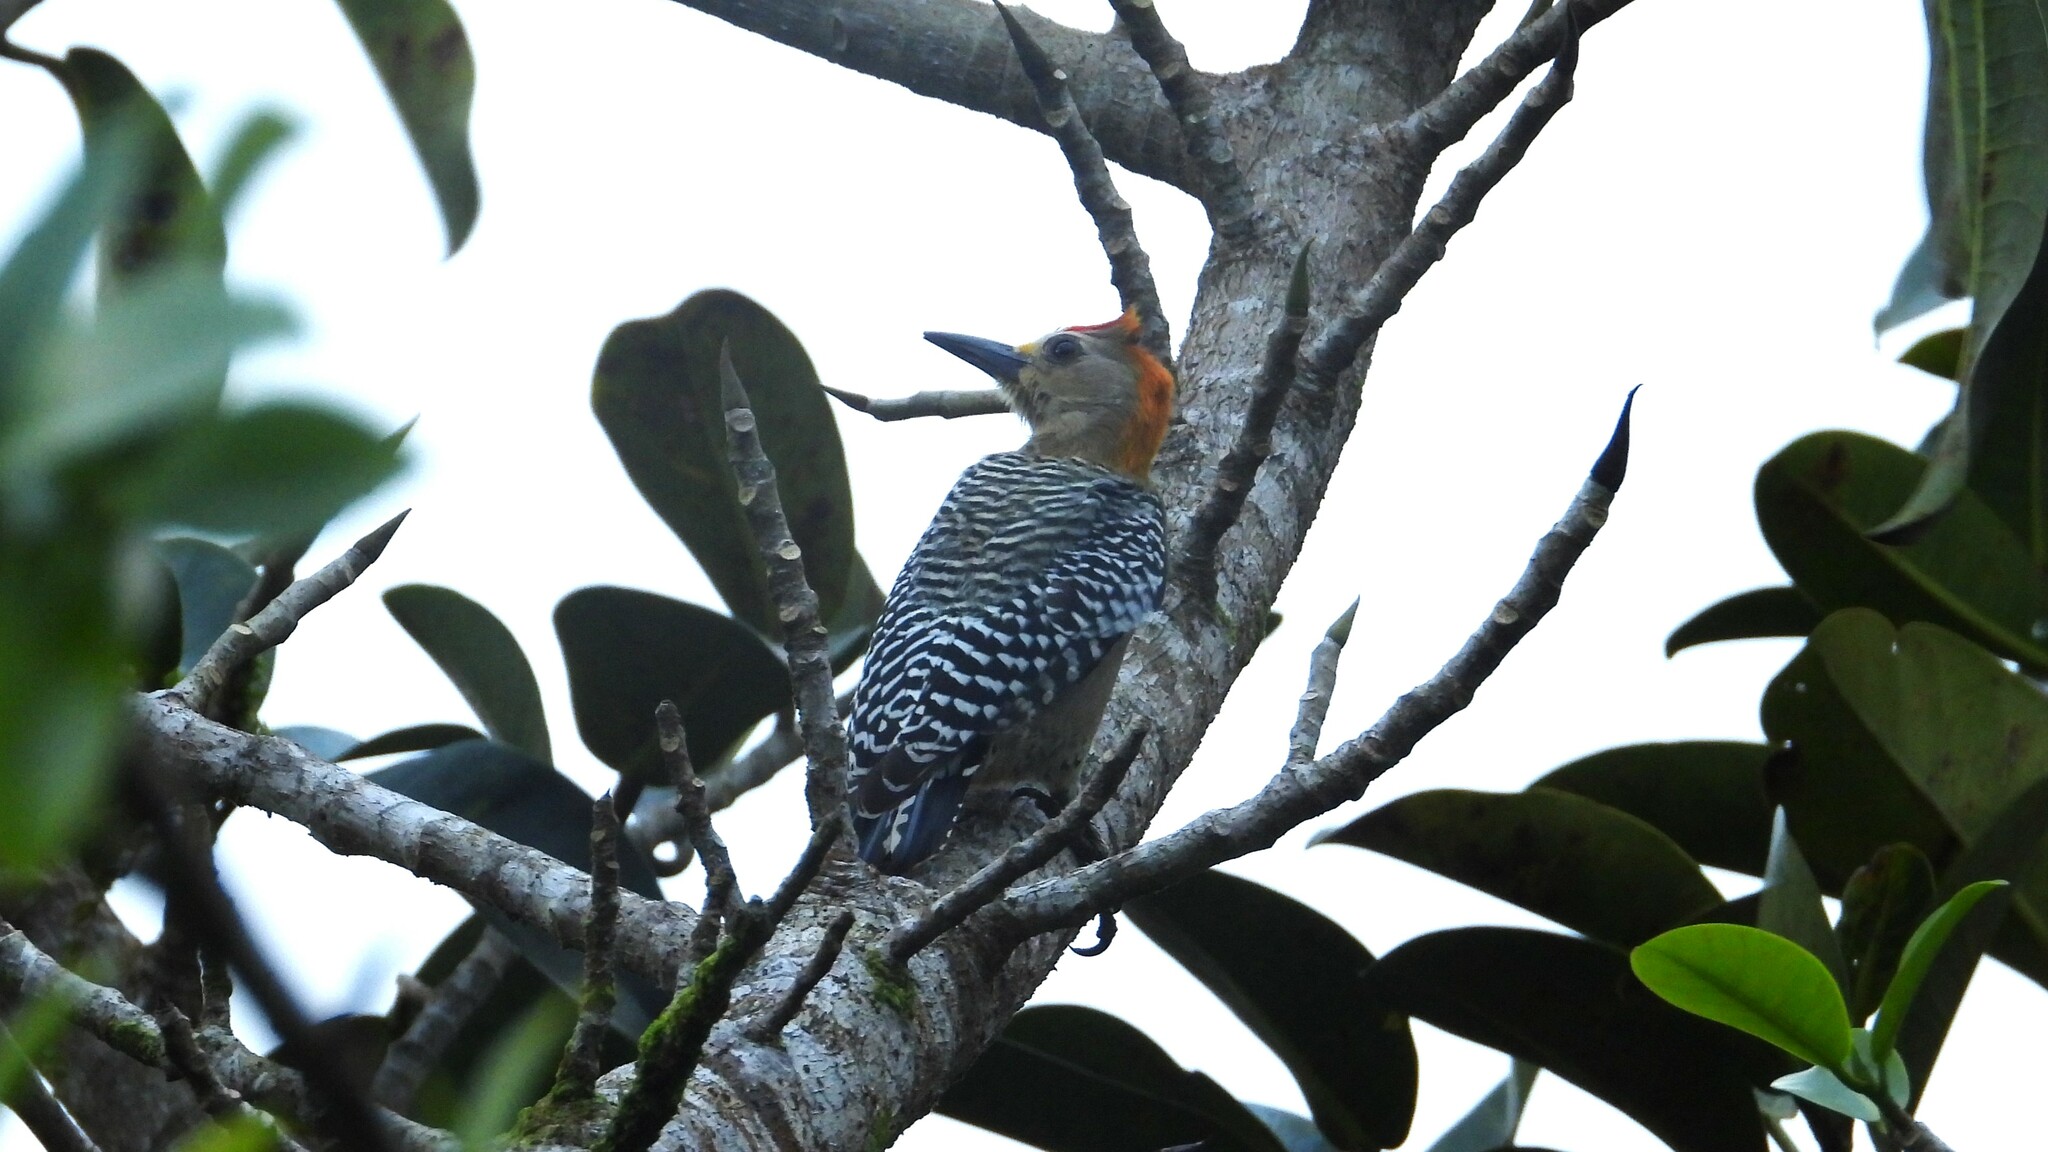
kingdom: Animalia
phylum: Chordata
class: Aves
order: Piciformes
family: Picidae
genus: Melanerpes
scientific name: Melanerpes hoffmannii
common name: Hoffmann's woodpecker
